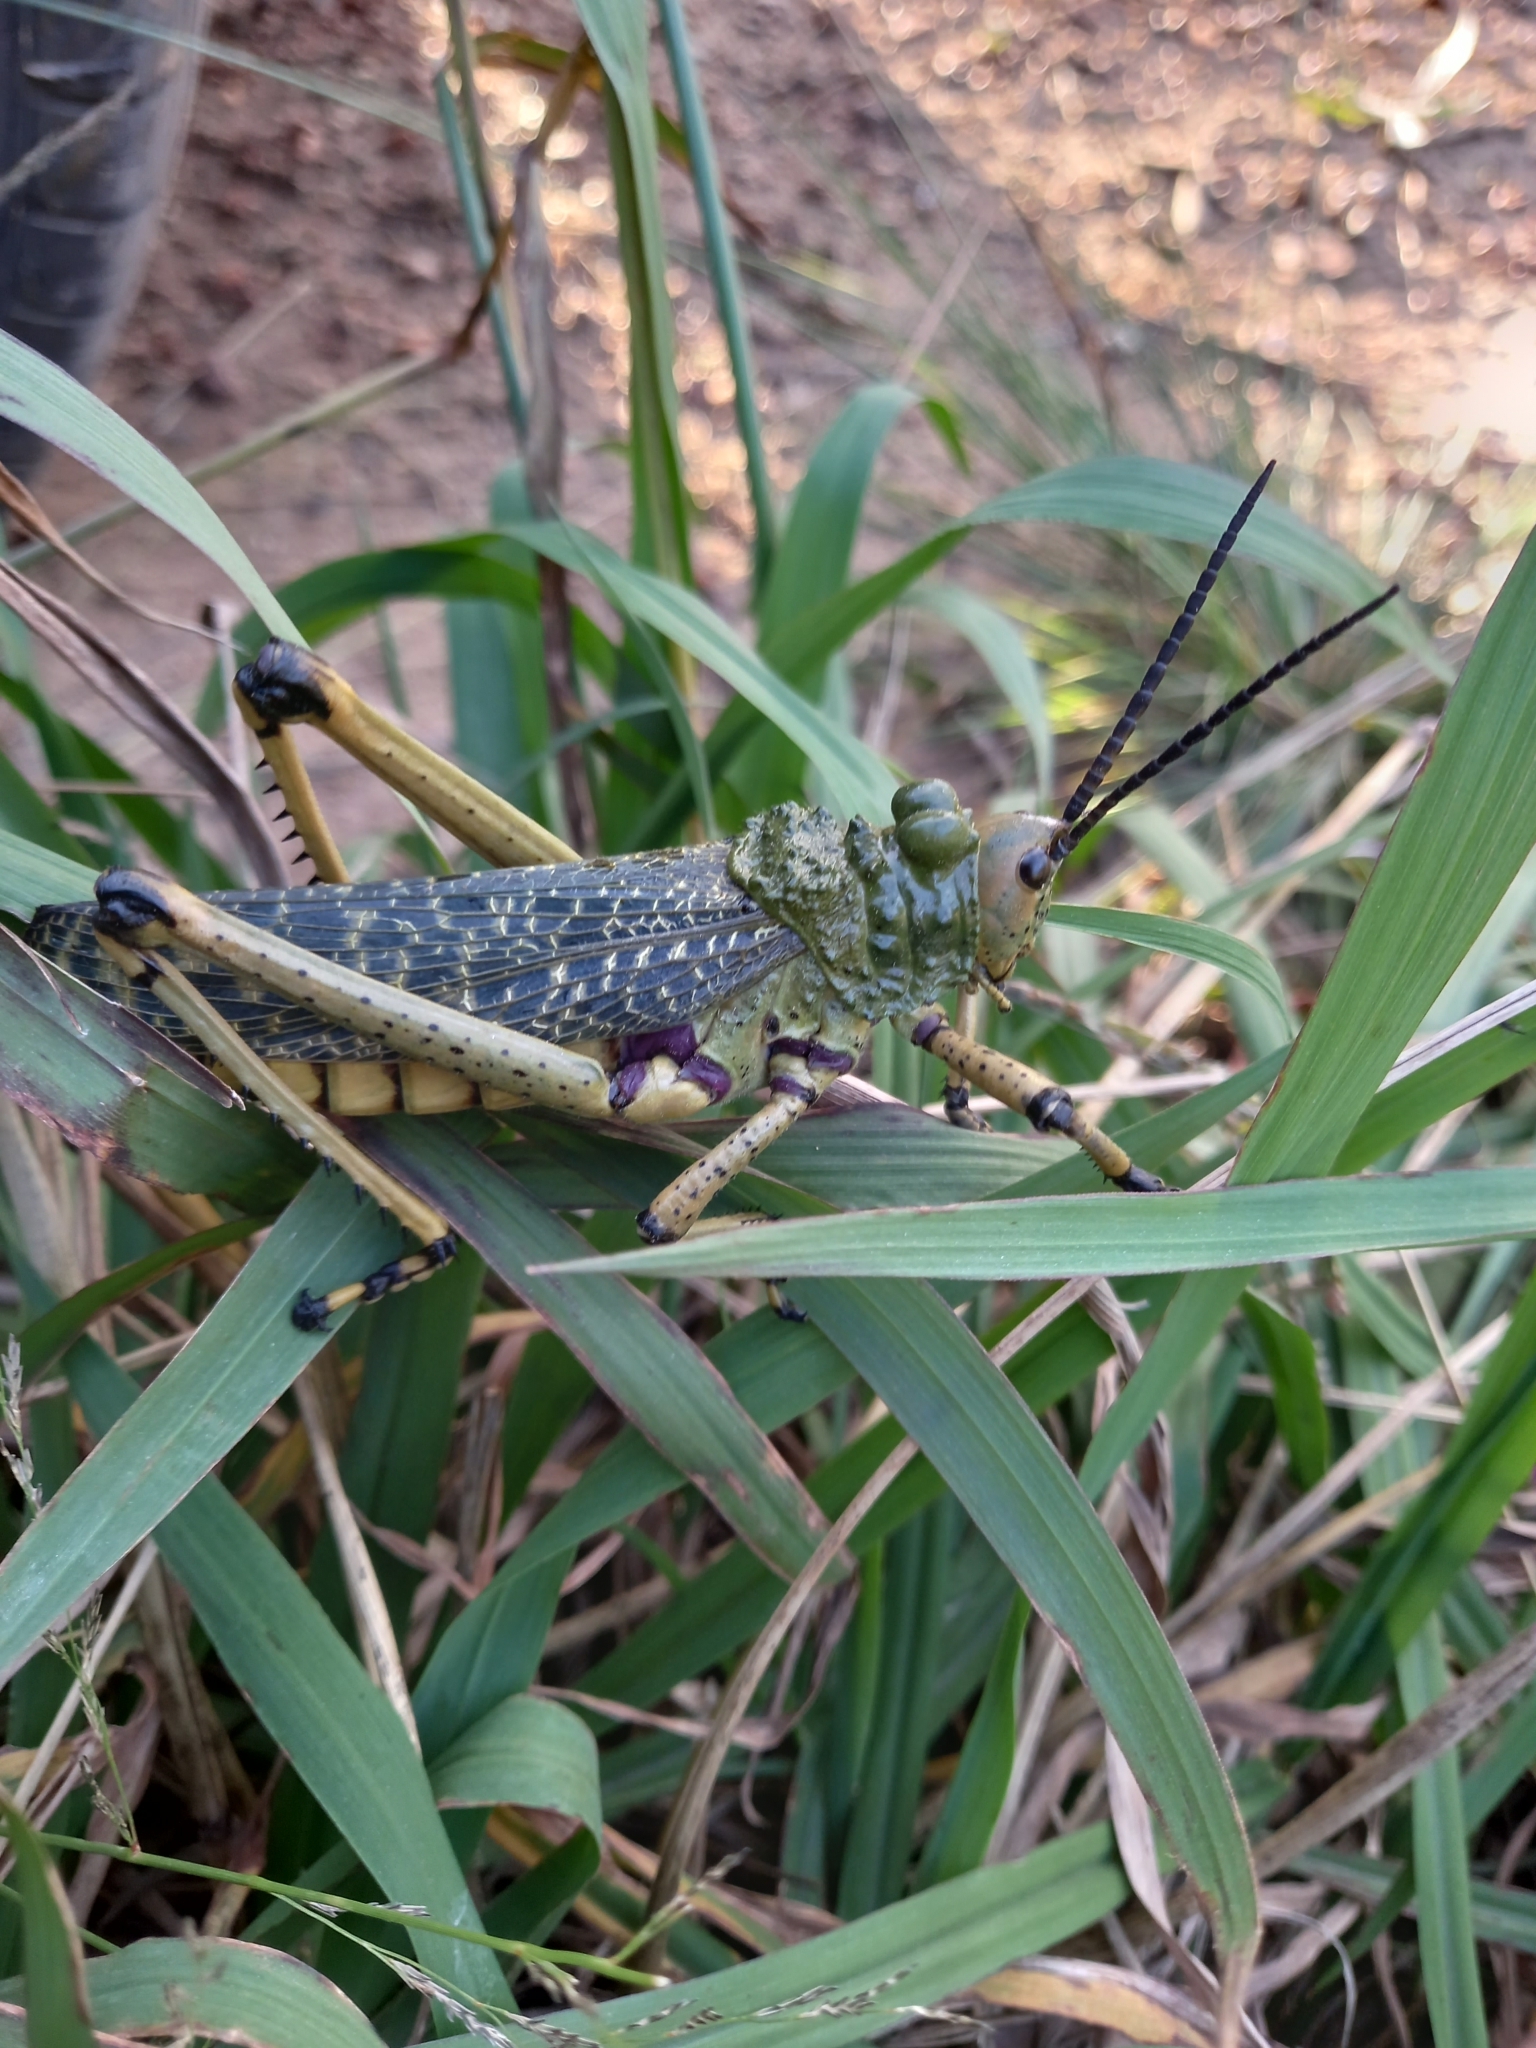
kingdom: Animalia
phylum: Arthropoda
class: Insecta
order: Orthoptera
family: Pyrgomorphidae
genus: Phymateus
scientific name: Phymateus leprosus
